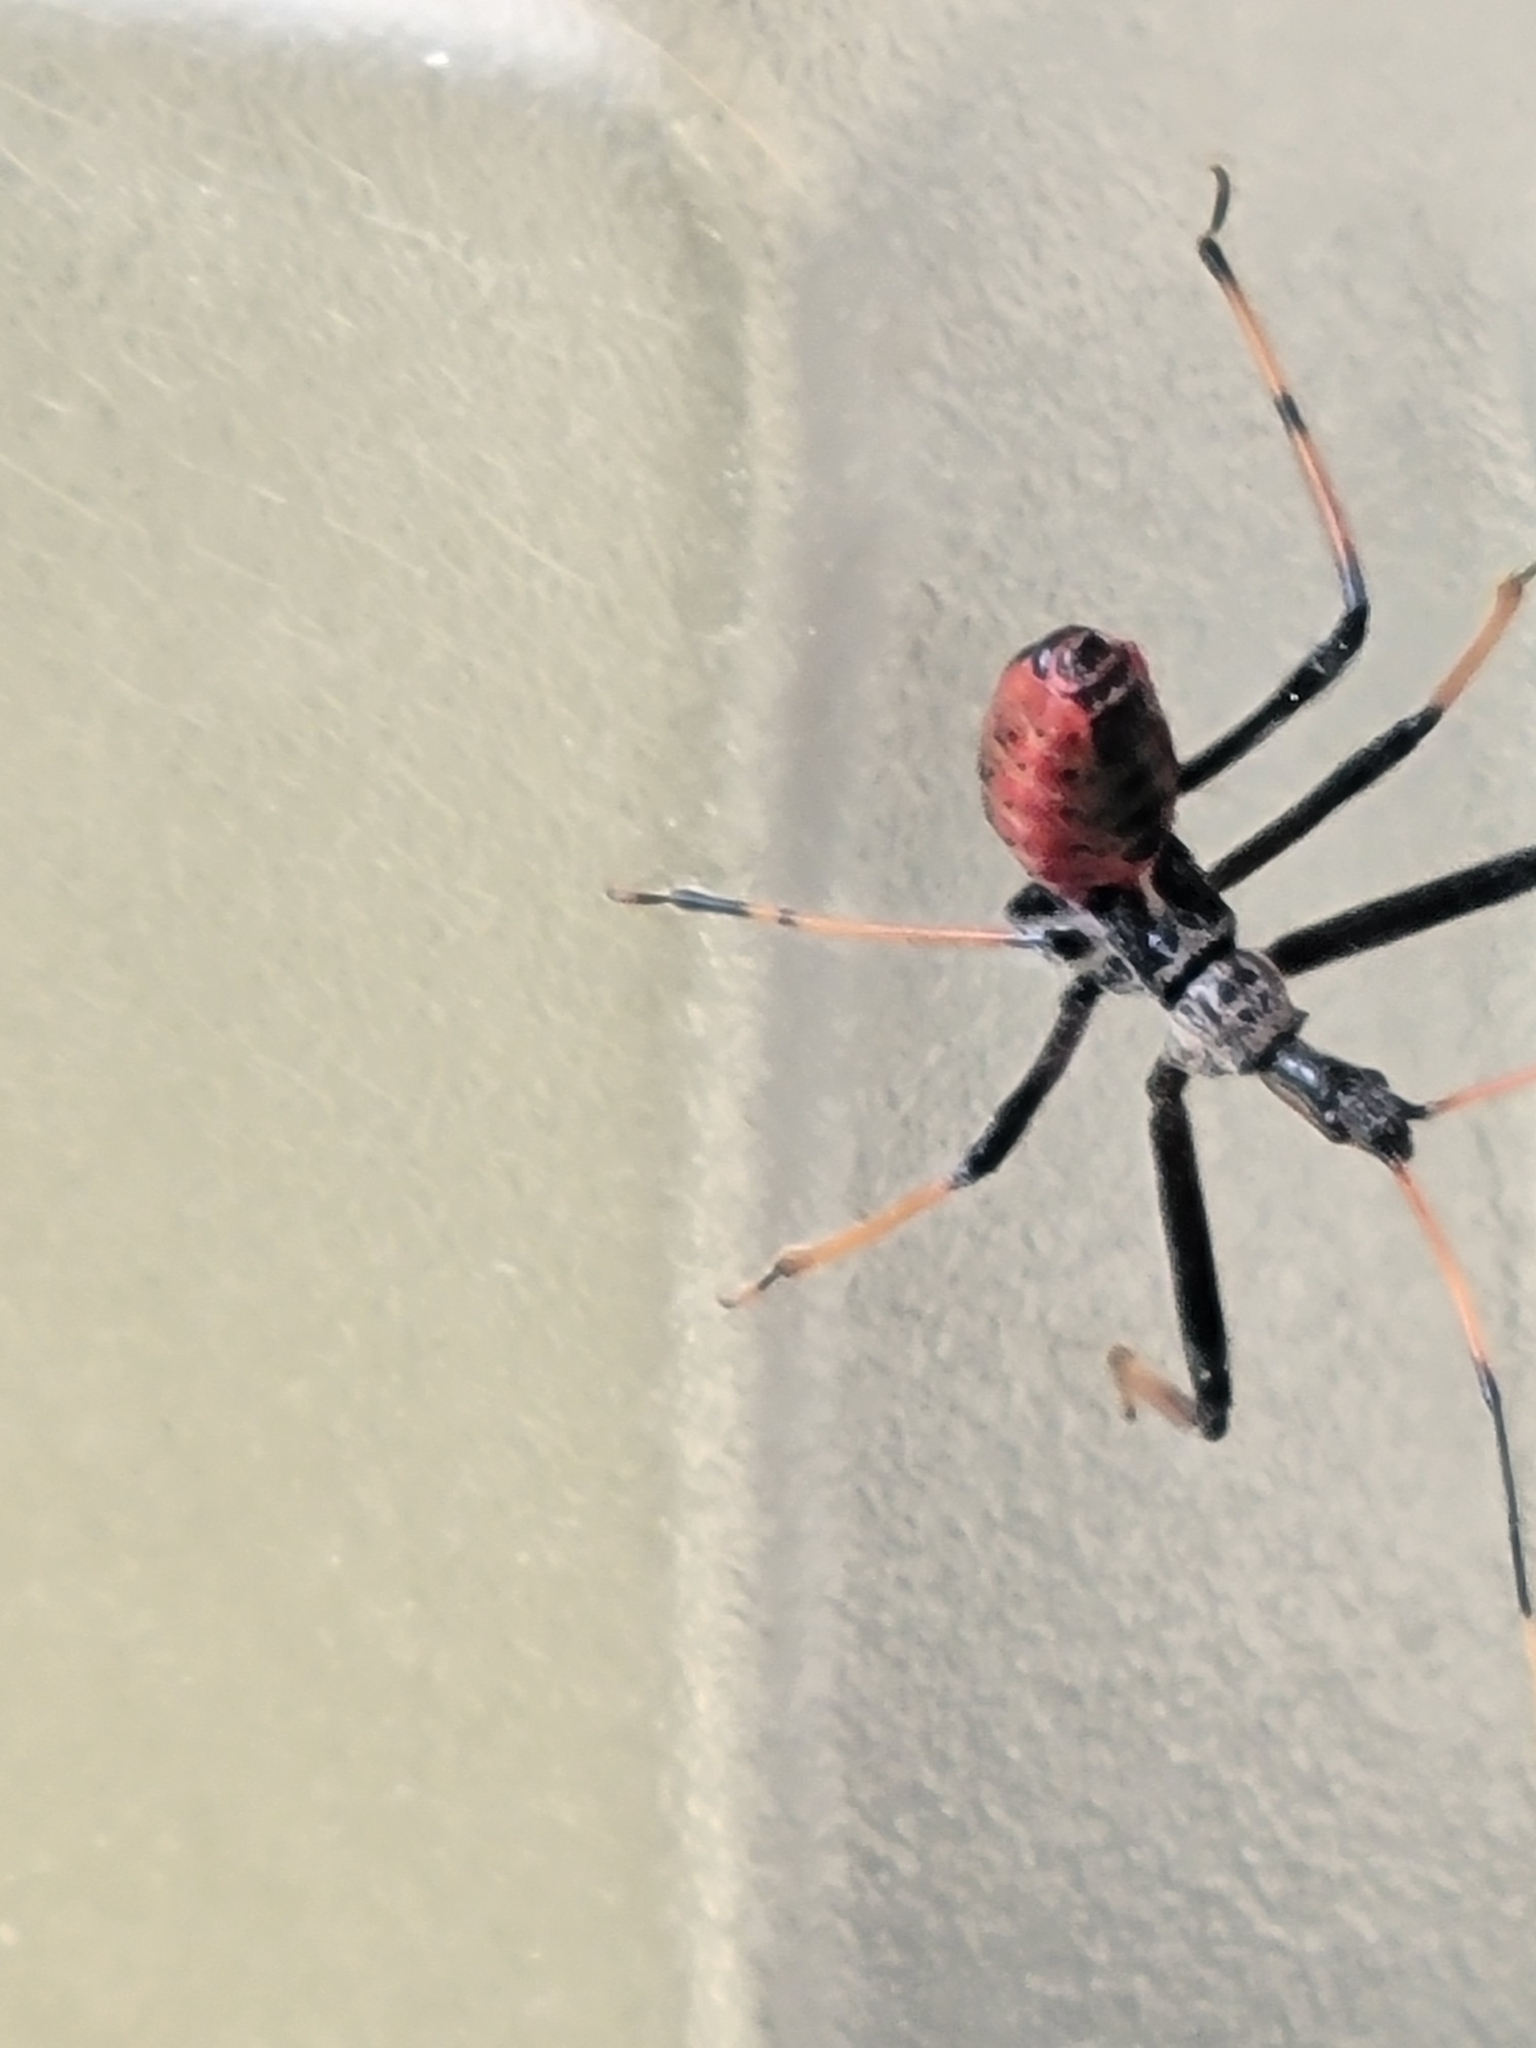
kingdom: Animalia
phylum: Arthropoda
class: Insecta
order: Hemiptera
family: Reduviidae
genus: Arilus
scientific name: Arilus cristatus
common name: North american wheel bug
